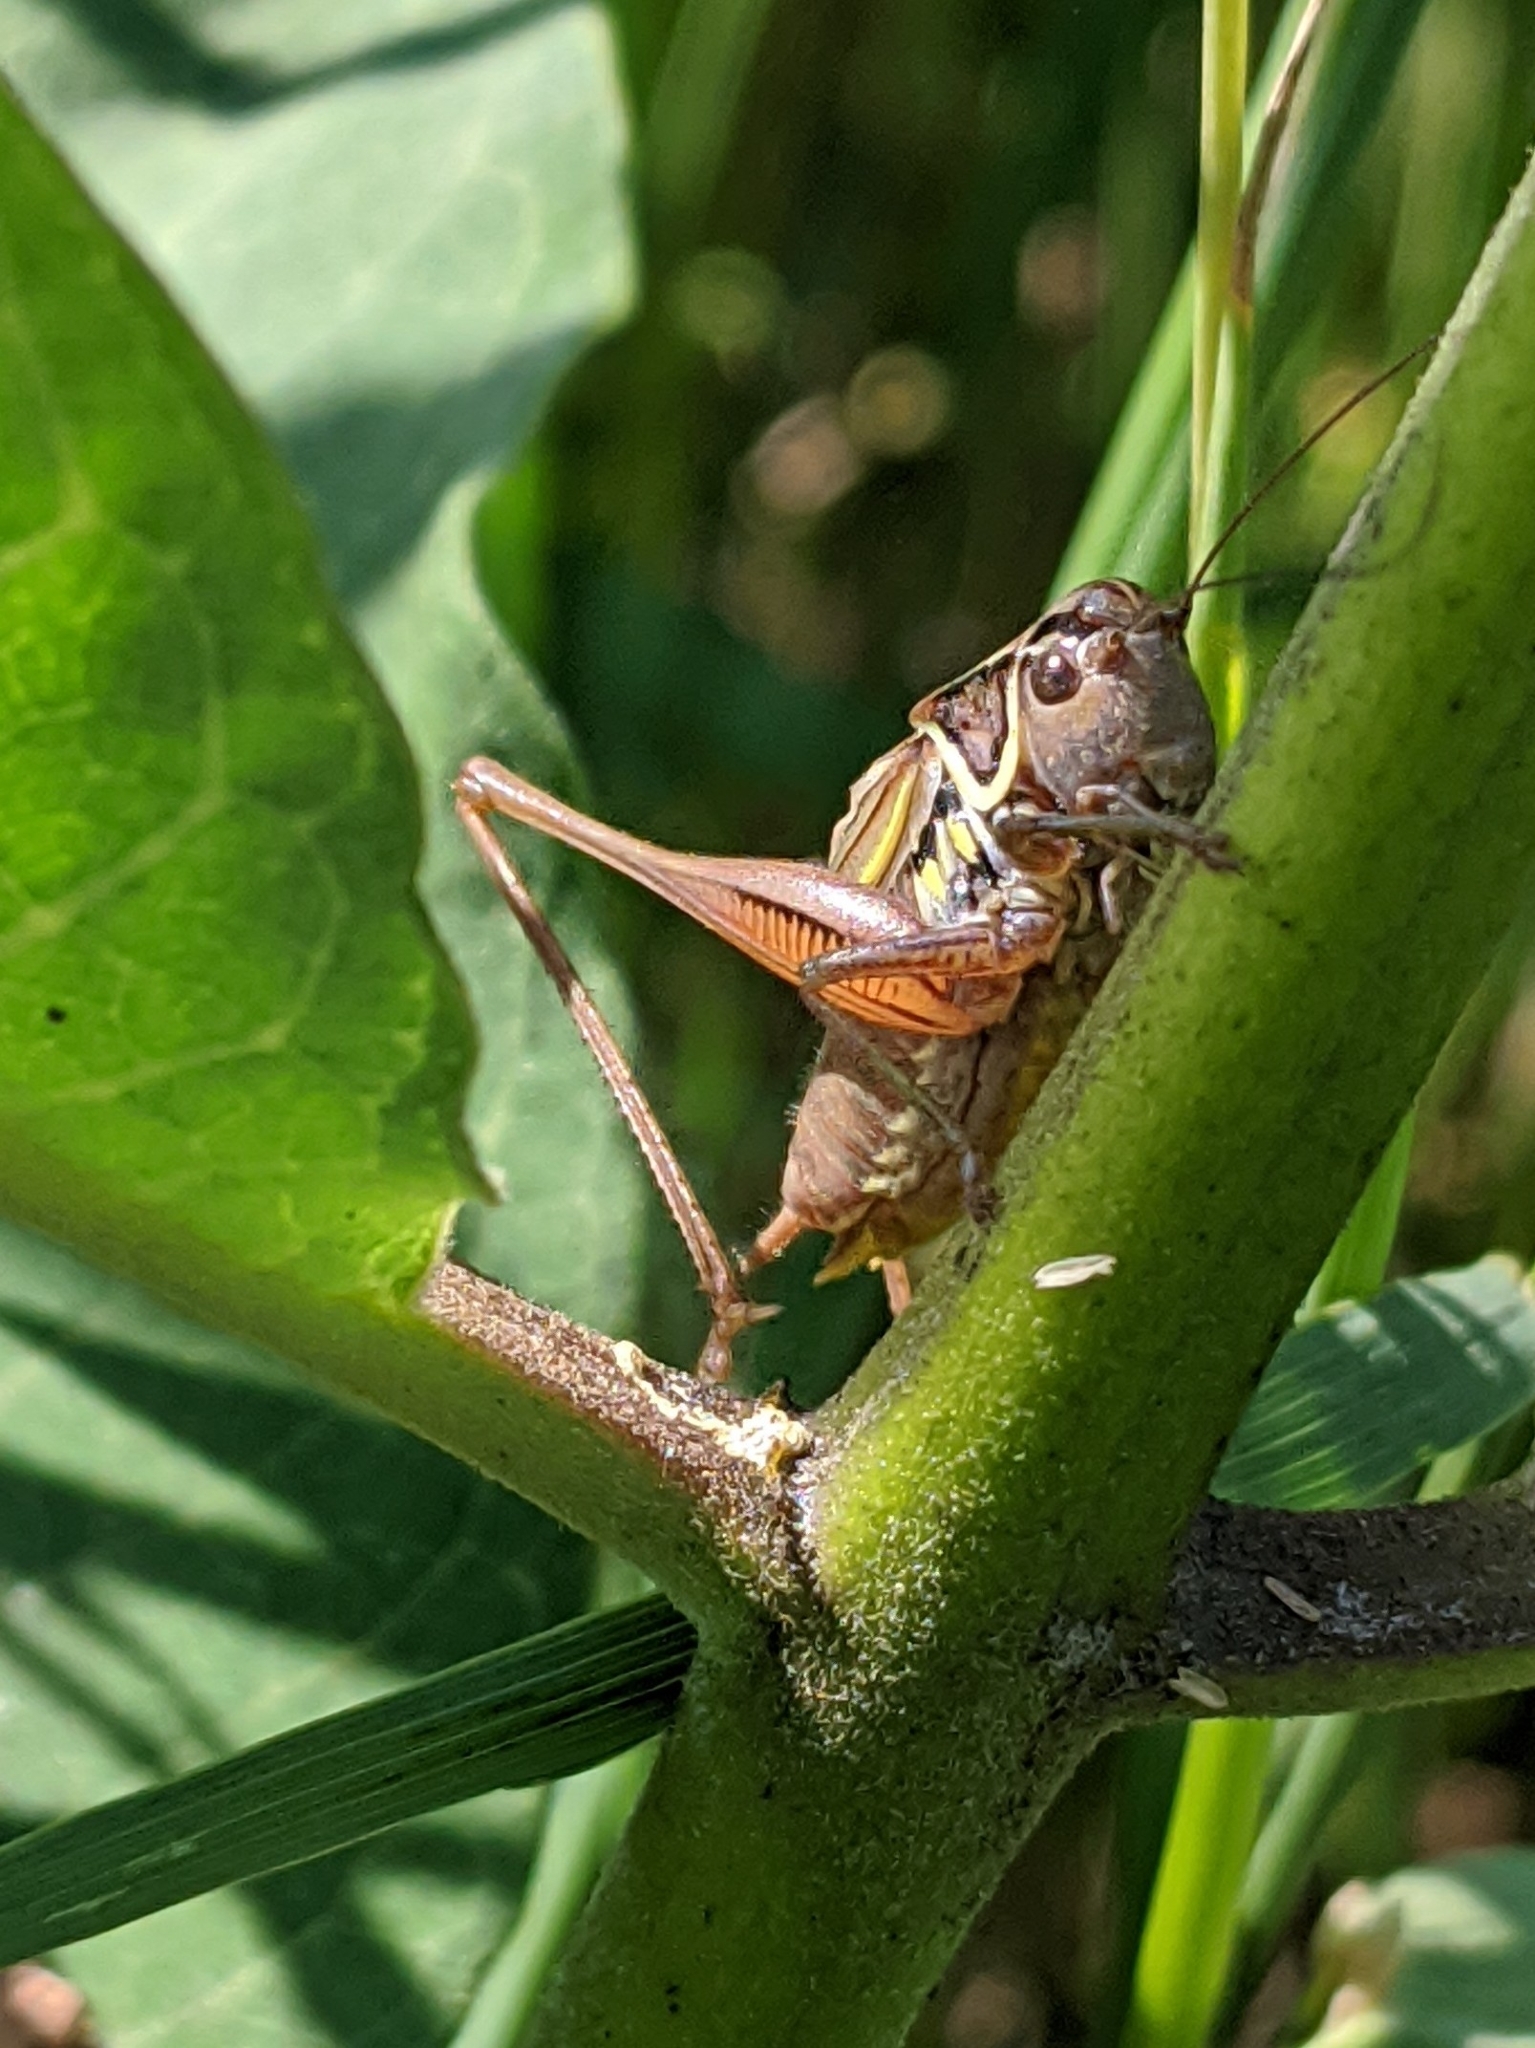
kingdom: Animalia
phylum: Arthropoda
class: Insecta
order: Orthoptera
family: Tettigoniidae
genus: Roeseliana
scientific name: Roeseliana roeselii
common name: Roesel's bush cricket
